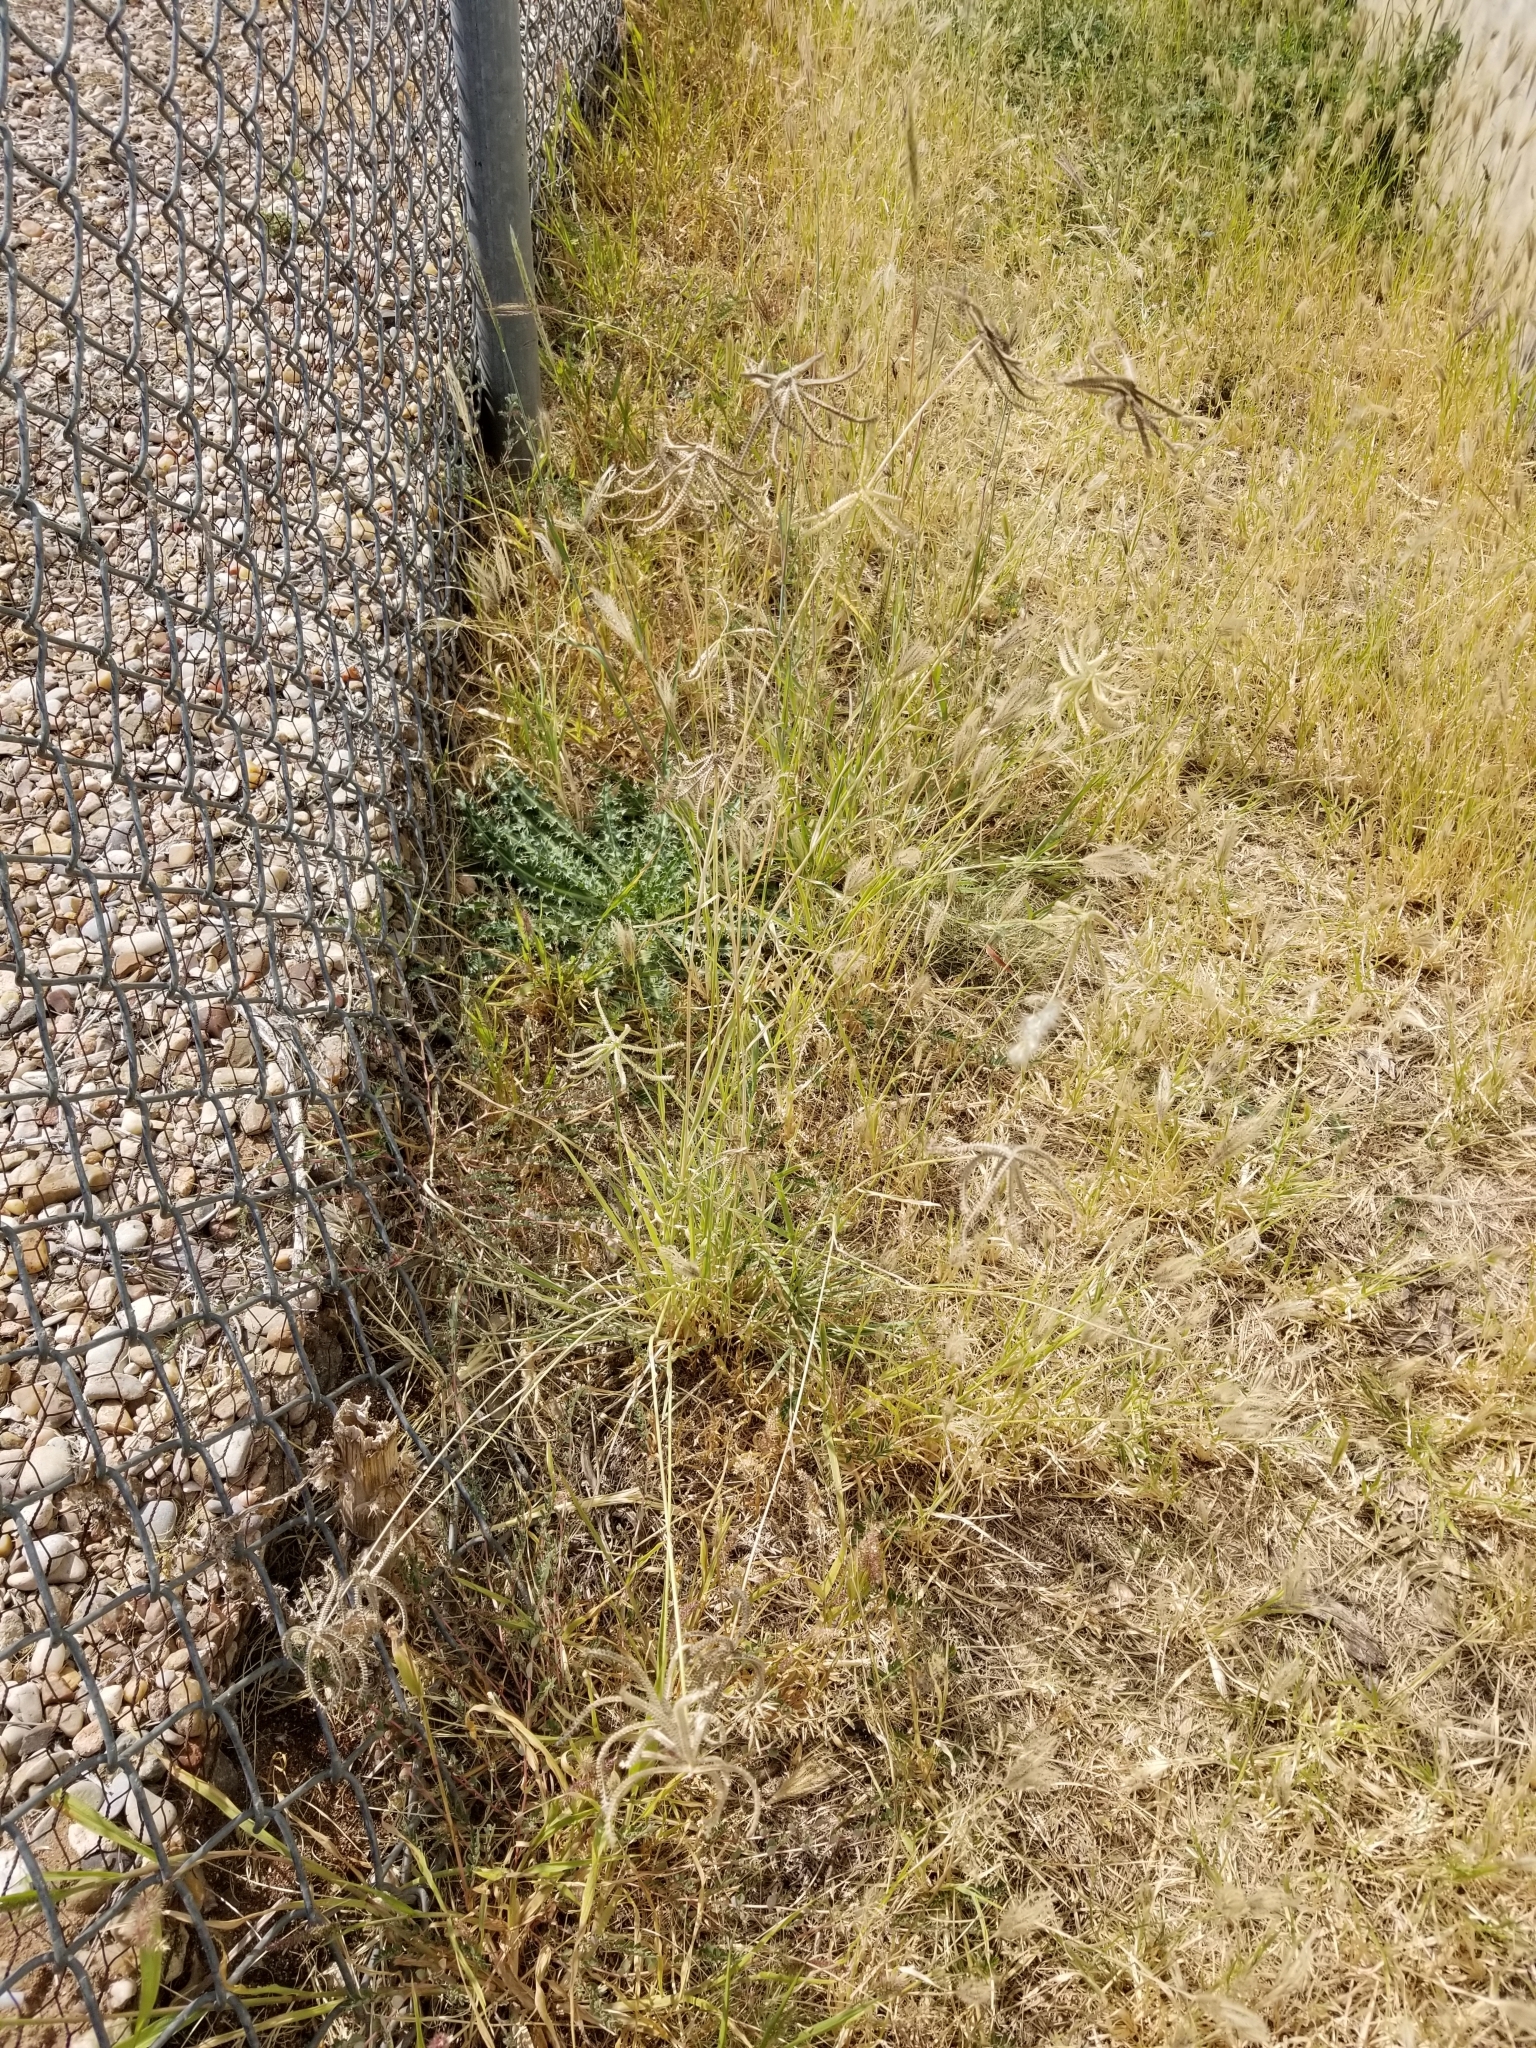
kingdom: Plantae
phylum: Tracheophyta
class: Liliopsida
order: Poales
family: Poaceae
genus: Chloris
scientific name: Chloris cucullata
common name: Hooded windmill grass
